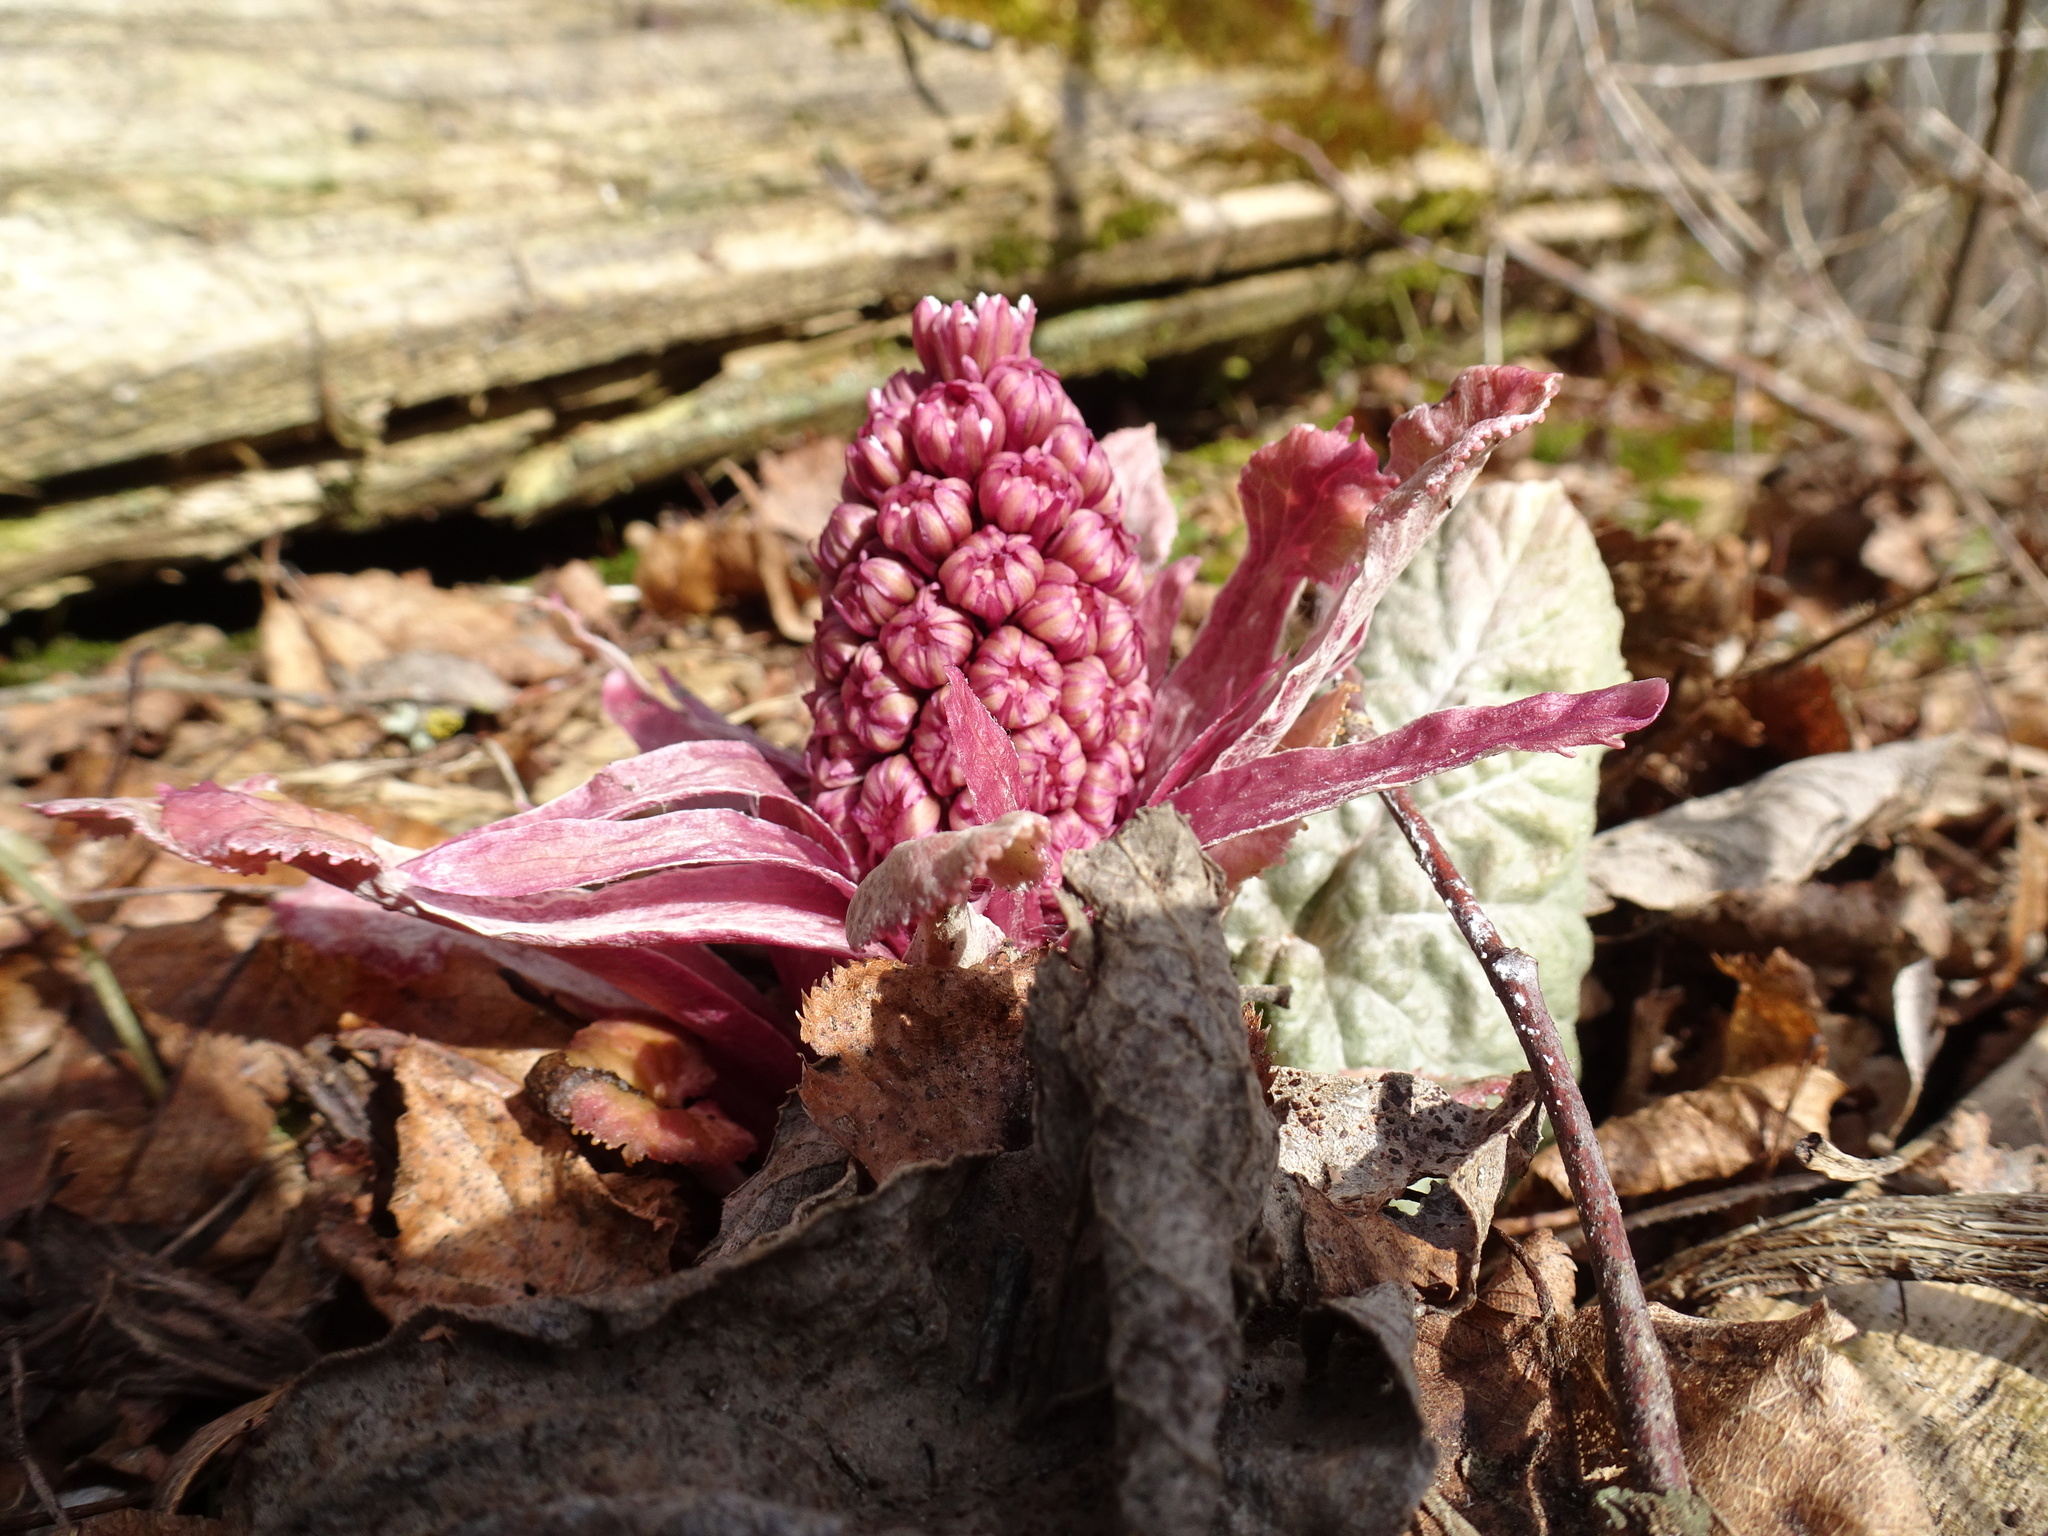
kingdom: Plantae
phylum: Tracheophyta
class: Magnoliopsida
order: Asterales
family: Asteraceae
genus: Petasites
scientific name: Petasites hybridus
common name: Butterbur
